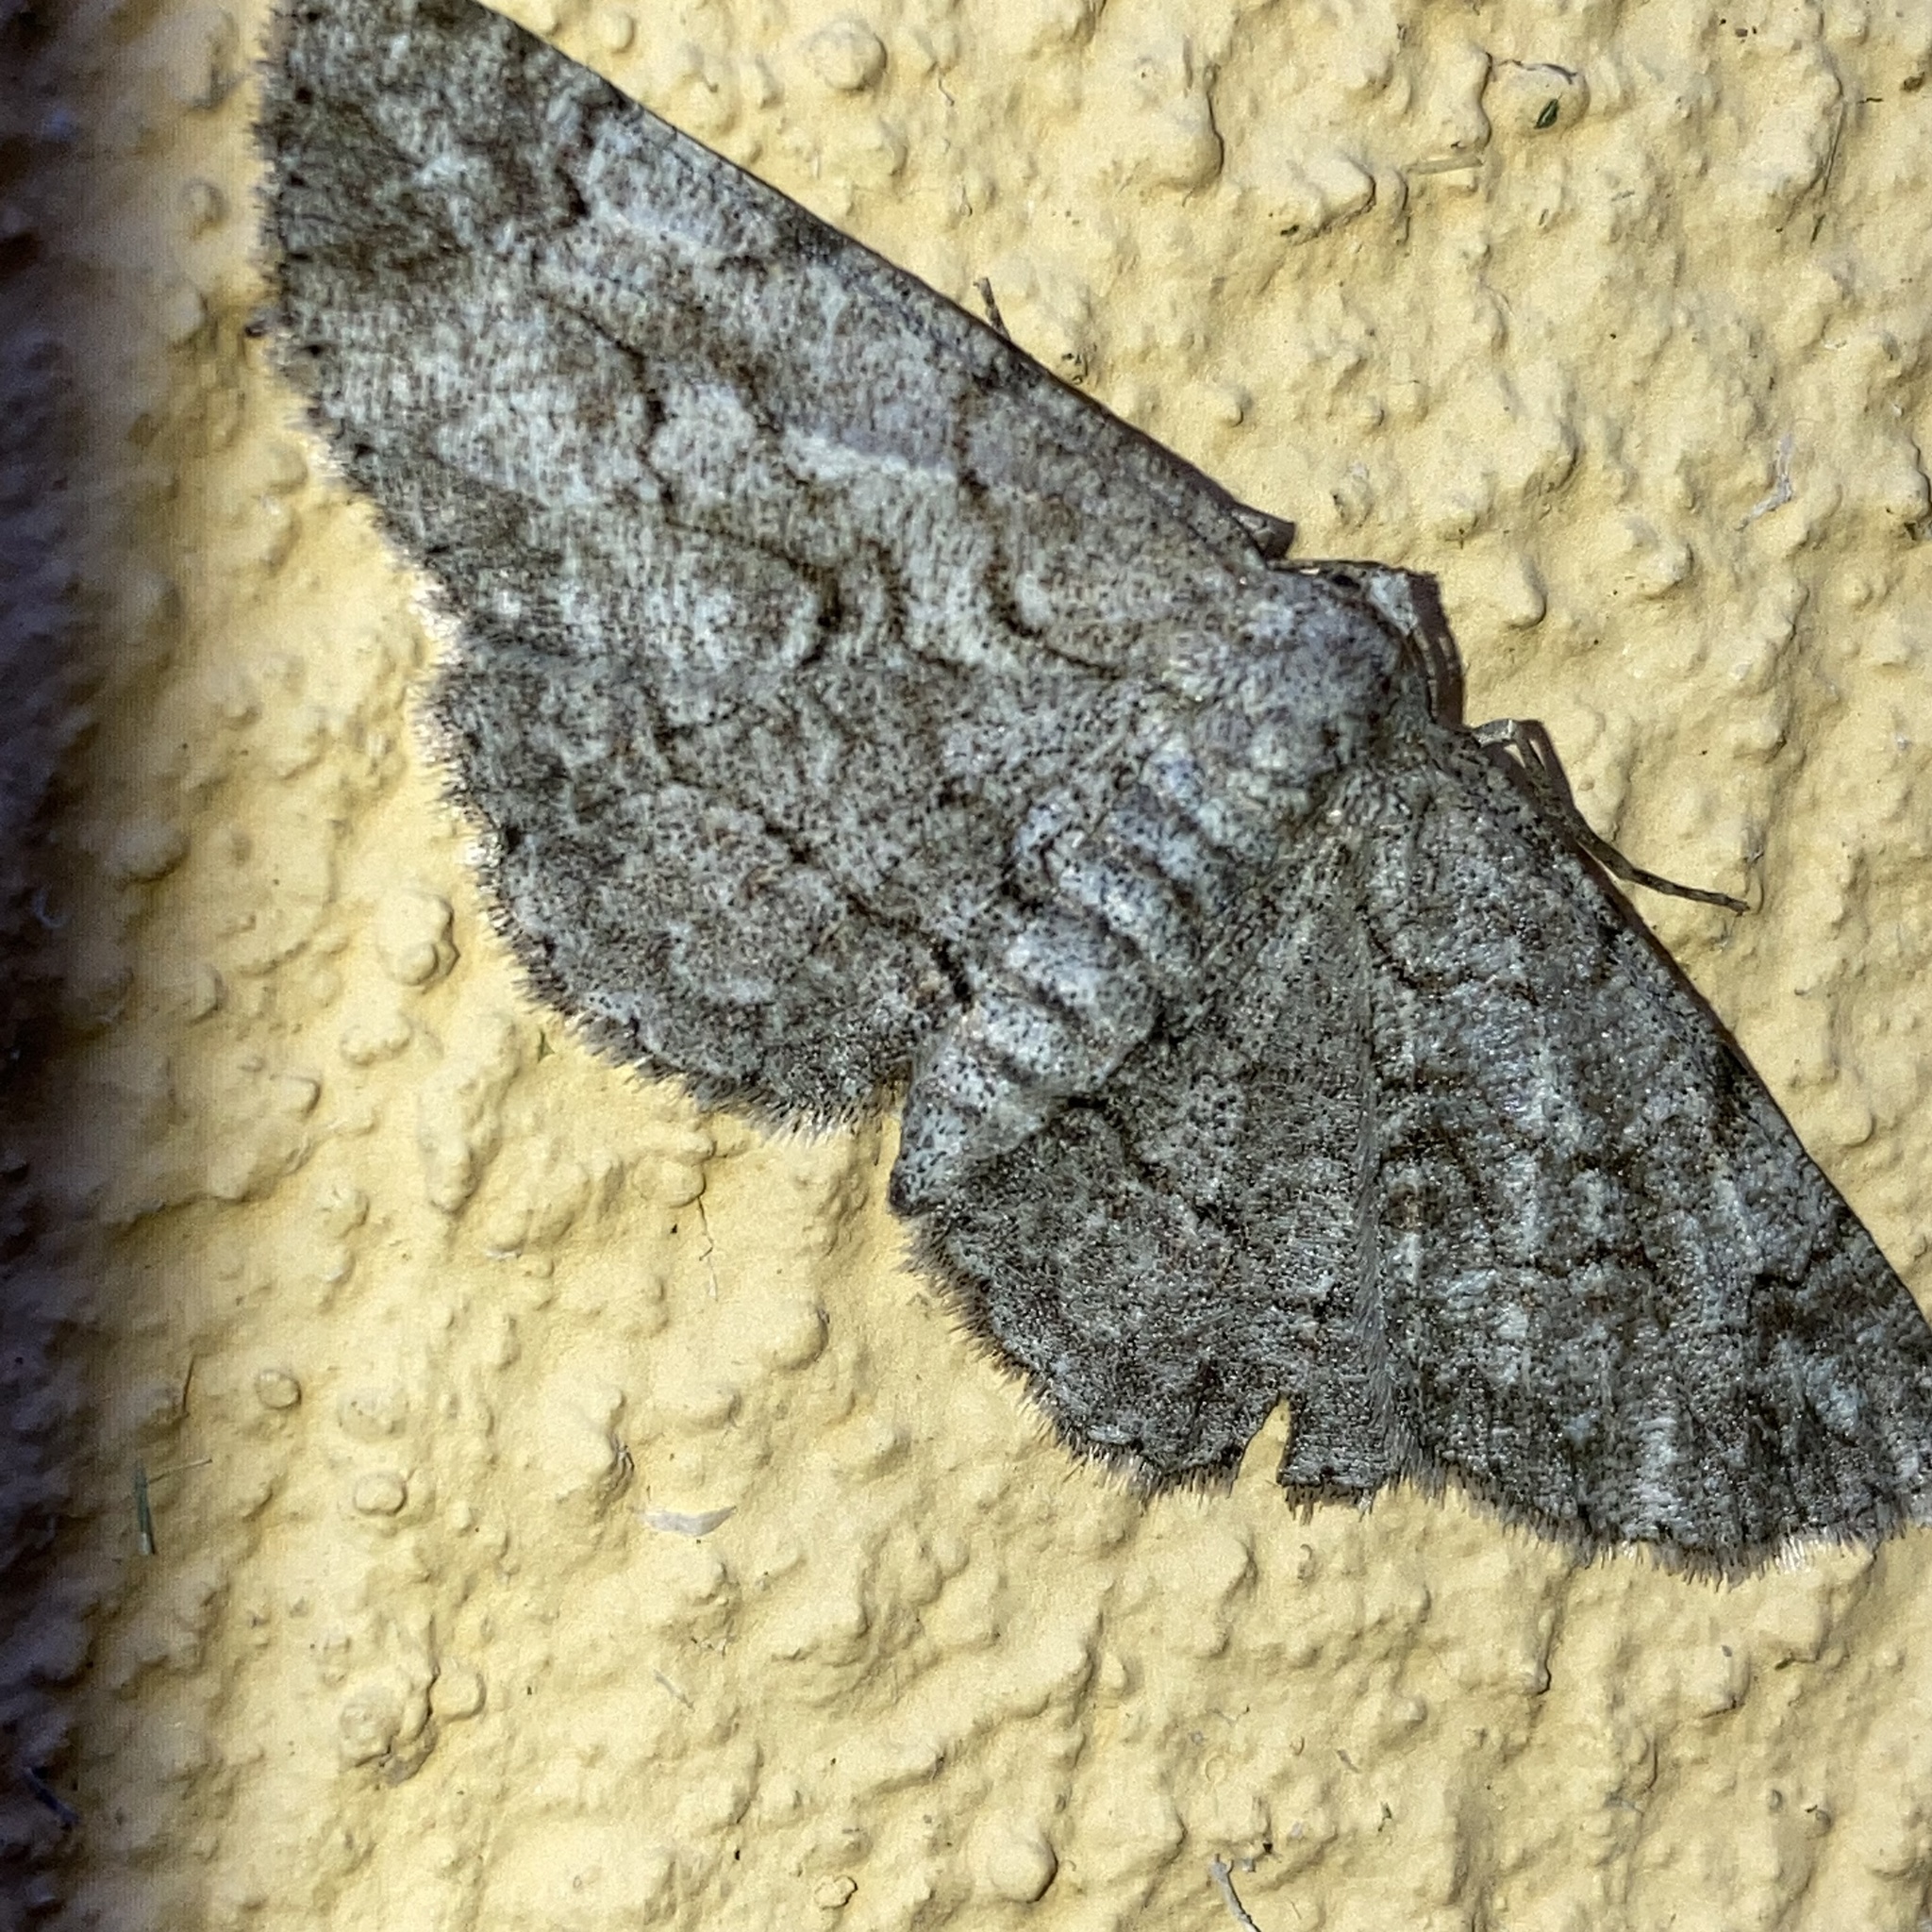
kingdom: Animalia
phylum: Arthropoda
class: Insecta
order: Lepidoptera
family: Geometridae
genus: Iridopsis
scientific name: Iridopsis defectaria
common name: Brown-shaded gray
